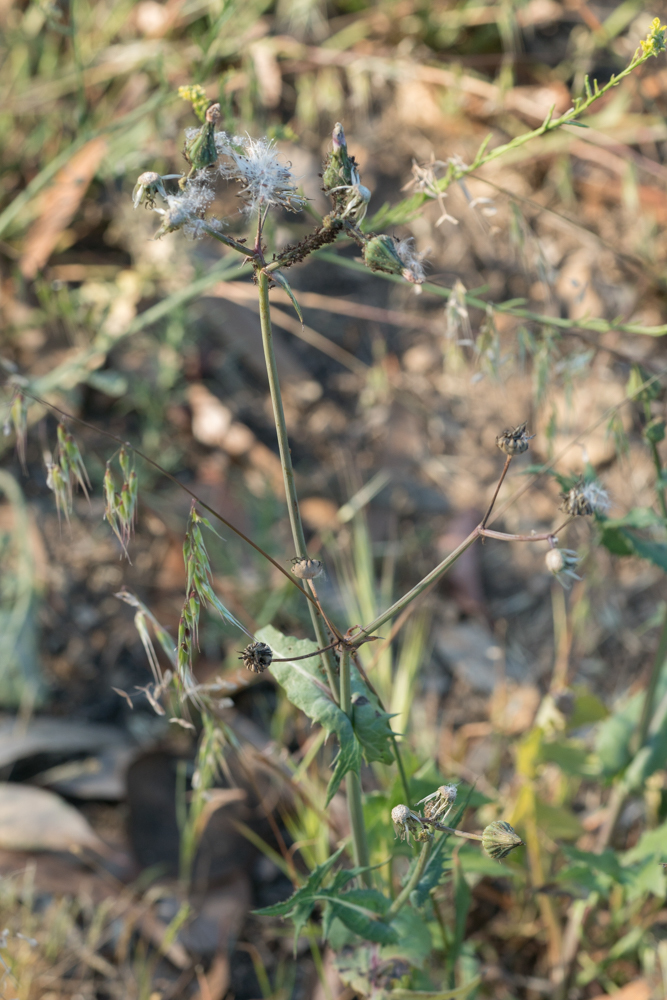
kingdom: Plantae
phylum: Tracheophyta
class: Magnoliopsida
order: Asterales
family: Asteraceae
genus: Sonchus
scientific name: Sonchus oleraceus
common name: Common sowthistle
